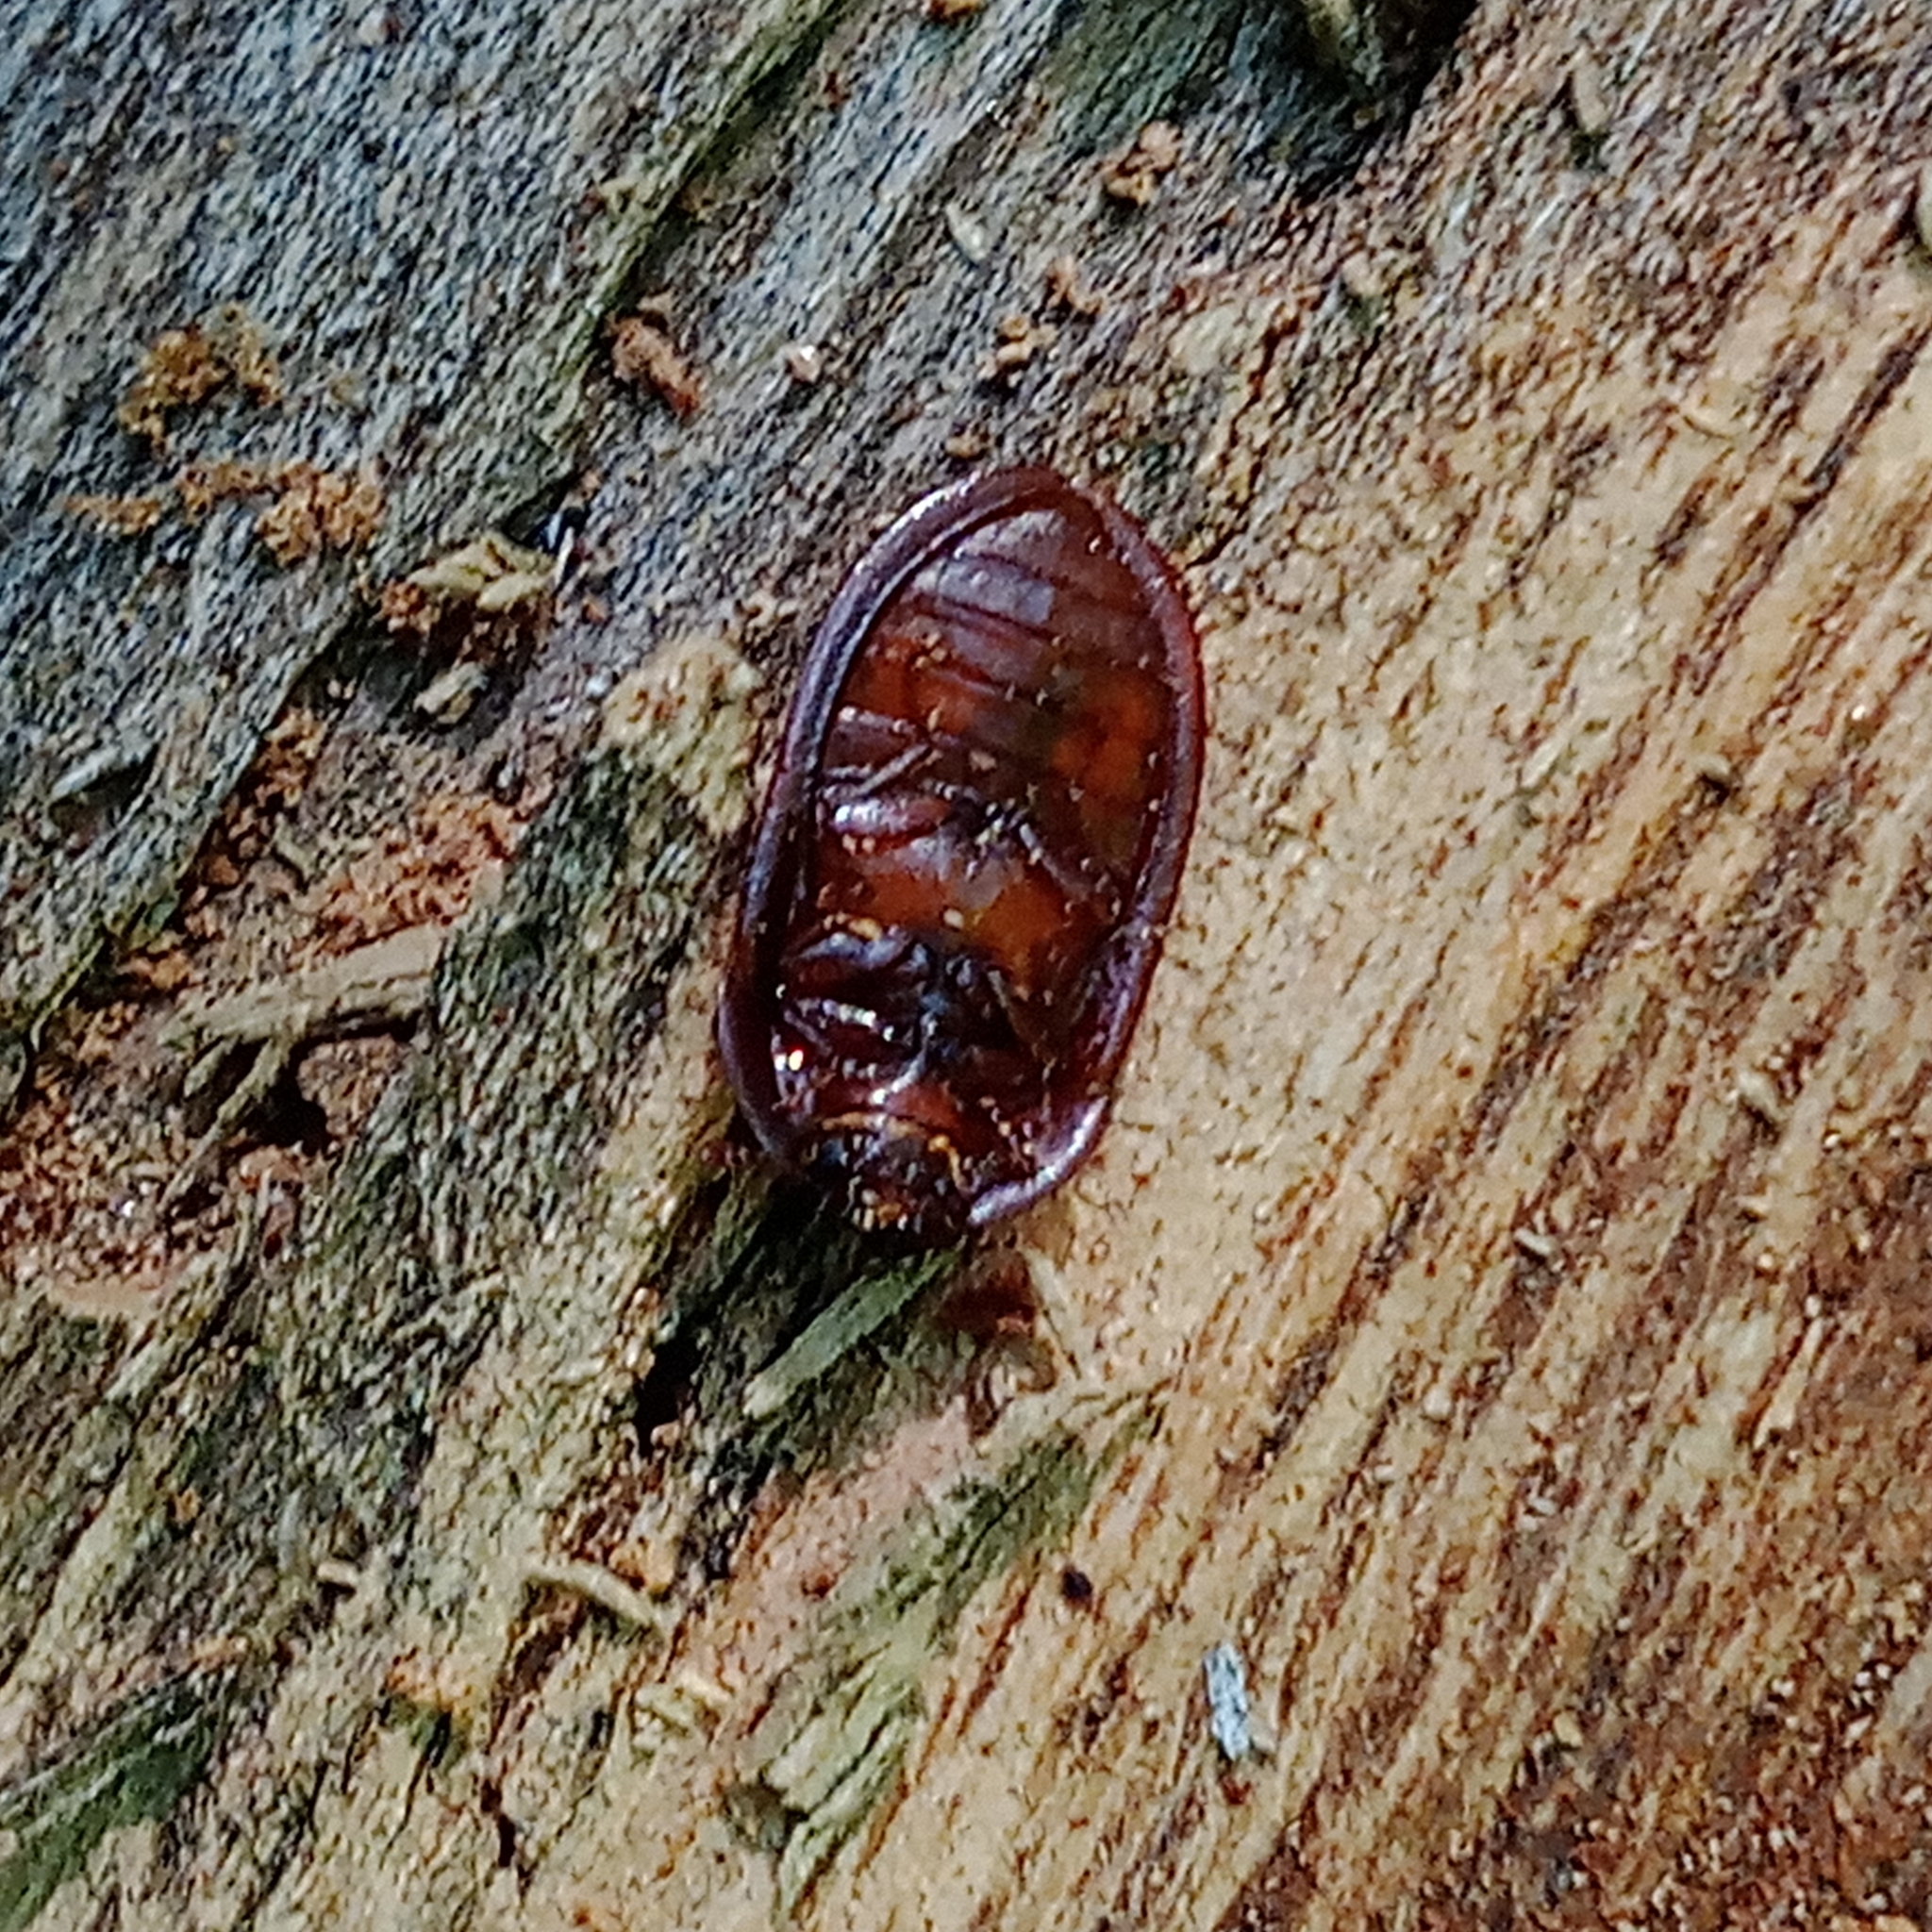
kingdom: Animalia
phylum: Arthropoda
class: Insecta
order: Coleoptera
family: Trogossitidae
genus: Peltis
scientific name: Peltis ferruginea
